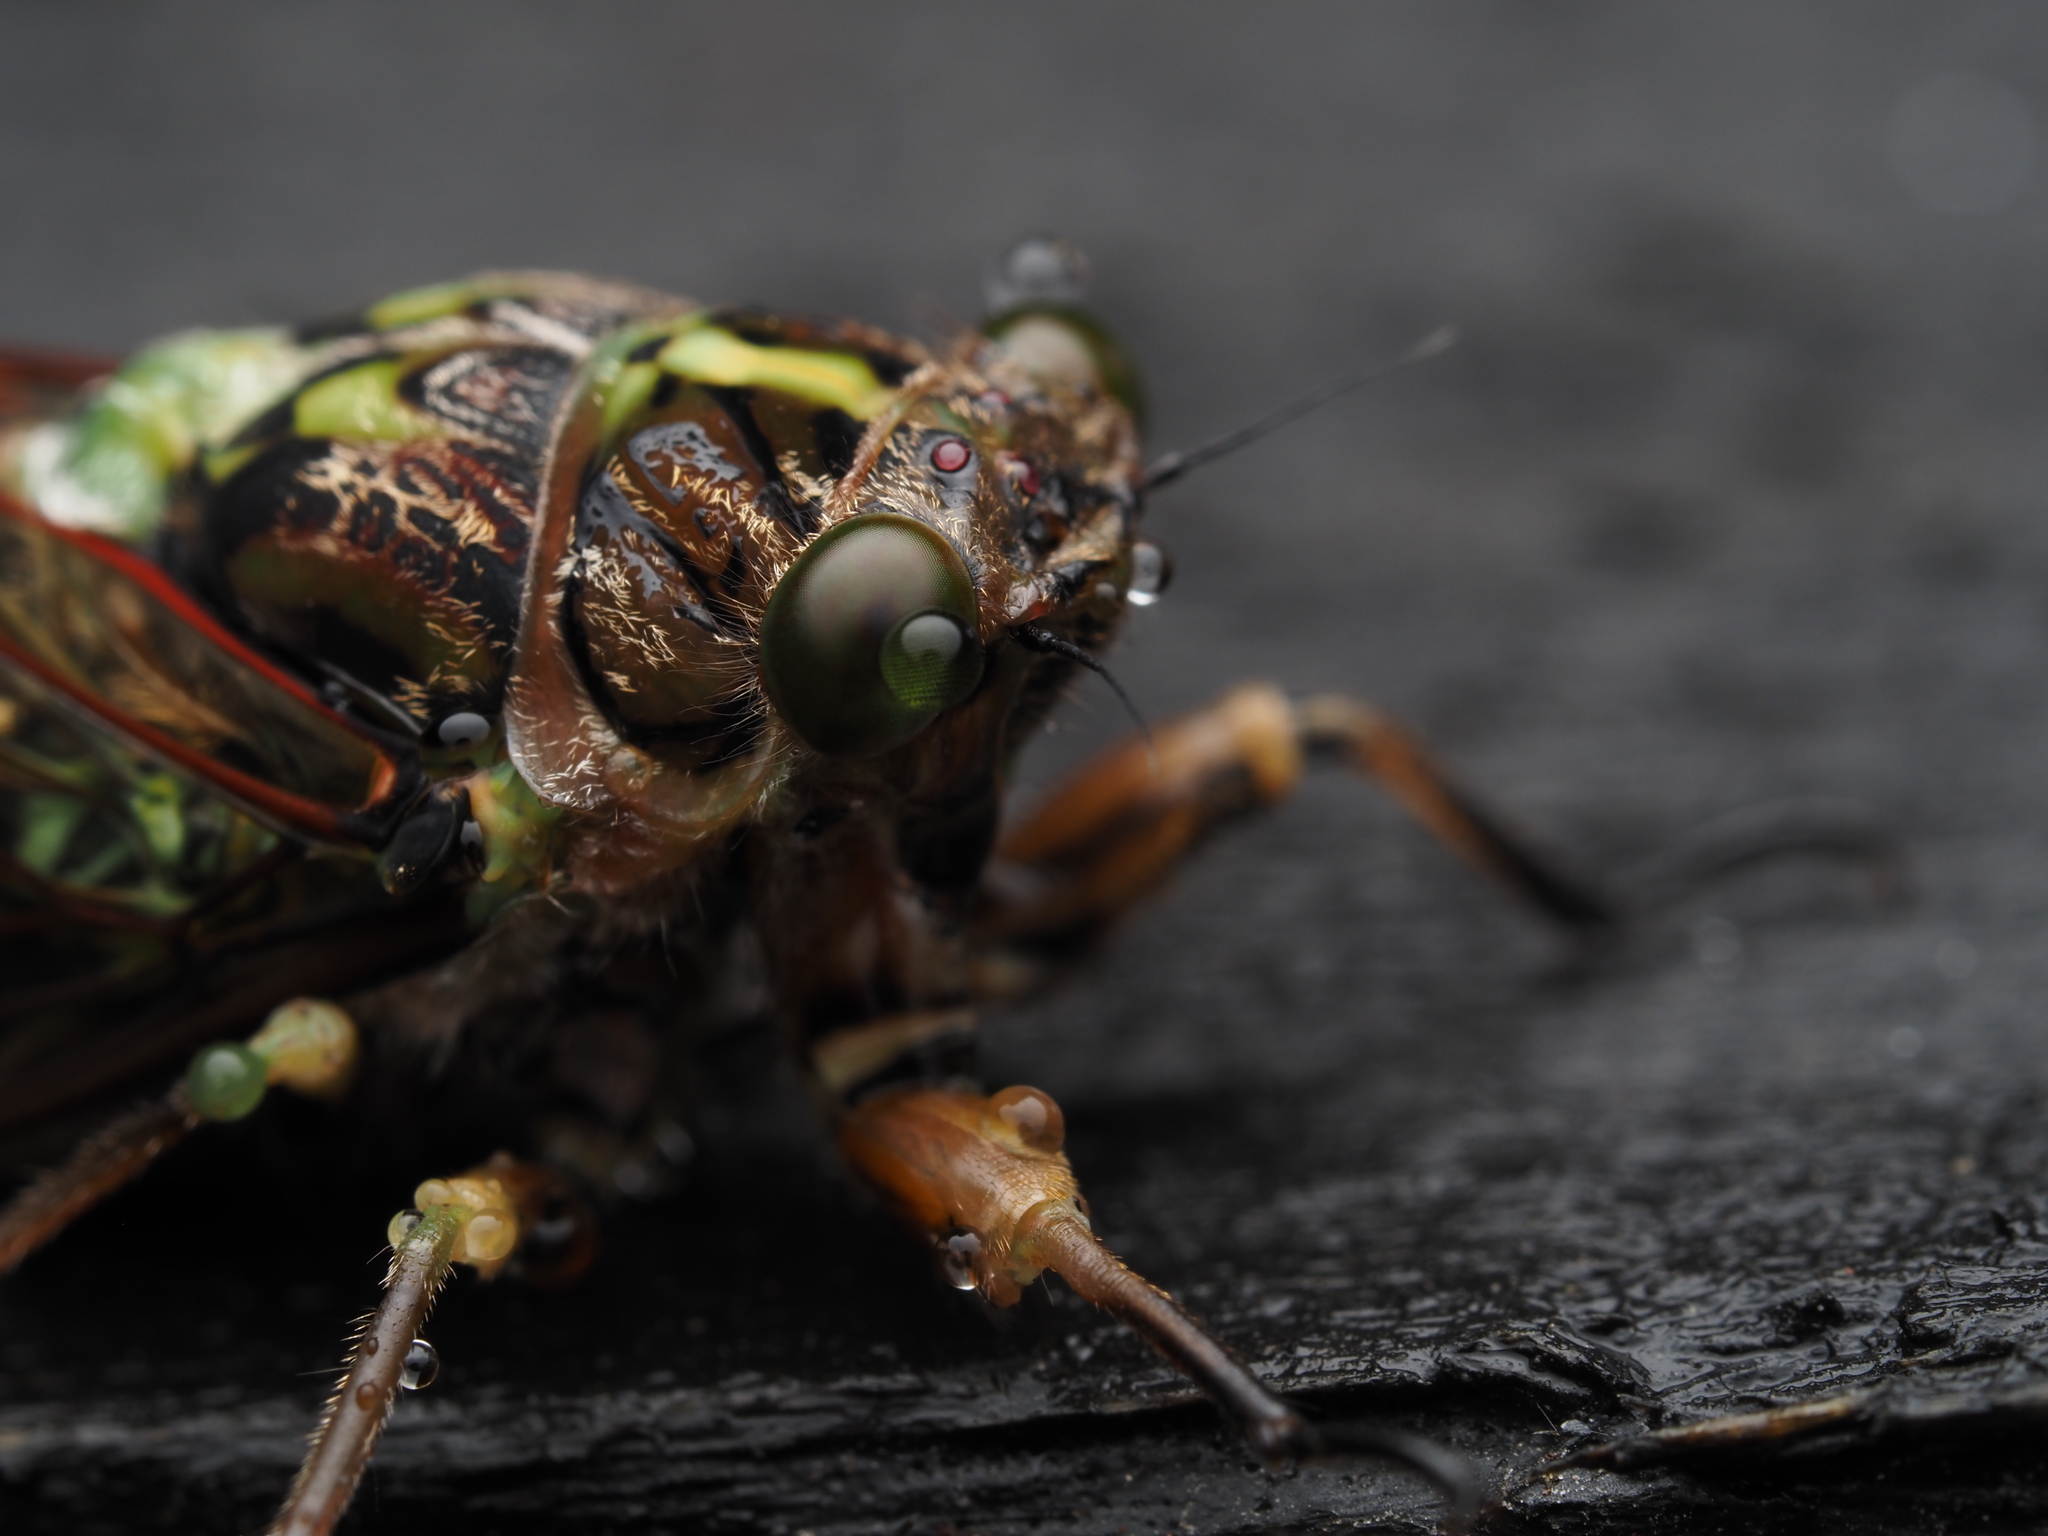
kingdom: Animalia
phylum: Arthropoda
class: Insecta
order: Hemiptera
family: Cicadidae
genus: Kikihia
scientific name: Kikihia cauta
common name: Greater bronze cicada
